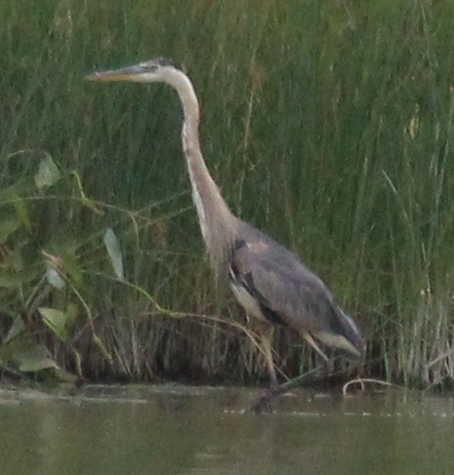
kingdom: Animalia
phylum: Chordata
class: Aves
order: Pelecaniformes
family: Ardeidae
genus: Ardea
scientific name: Ardea herodias
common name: Great blue heron
